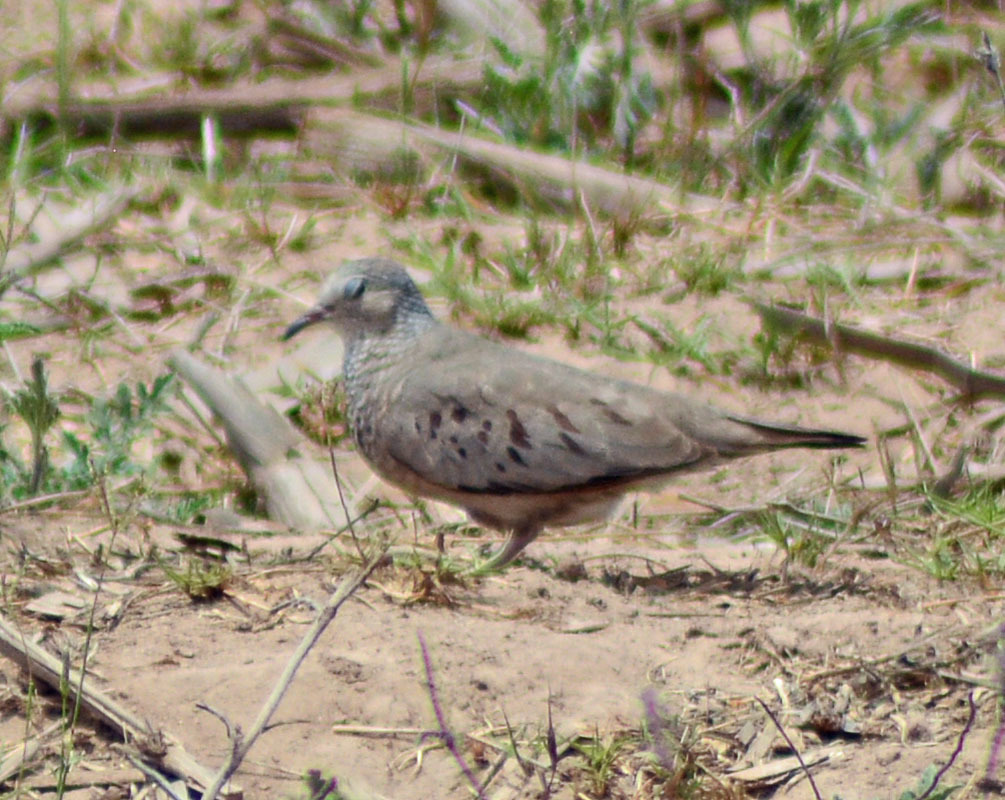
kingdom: Animalia
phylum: Chordata
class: Aves
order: Columbiformes
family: Columbidae
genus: Columbina
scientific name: Columbina passerina
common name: Common ground-dove
